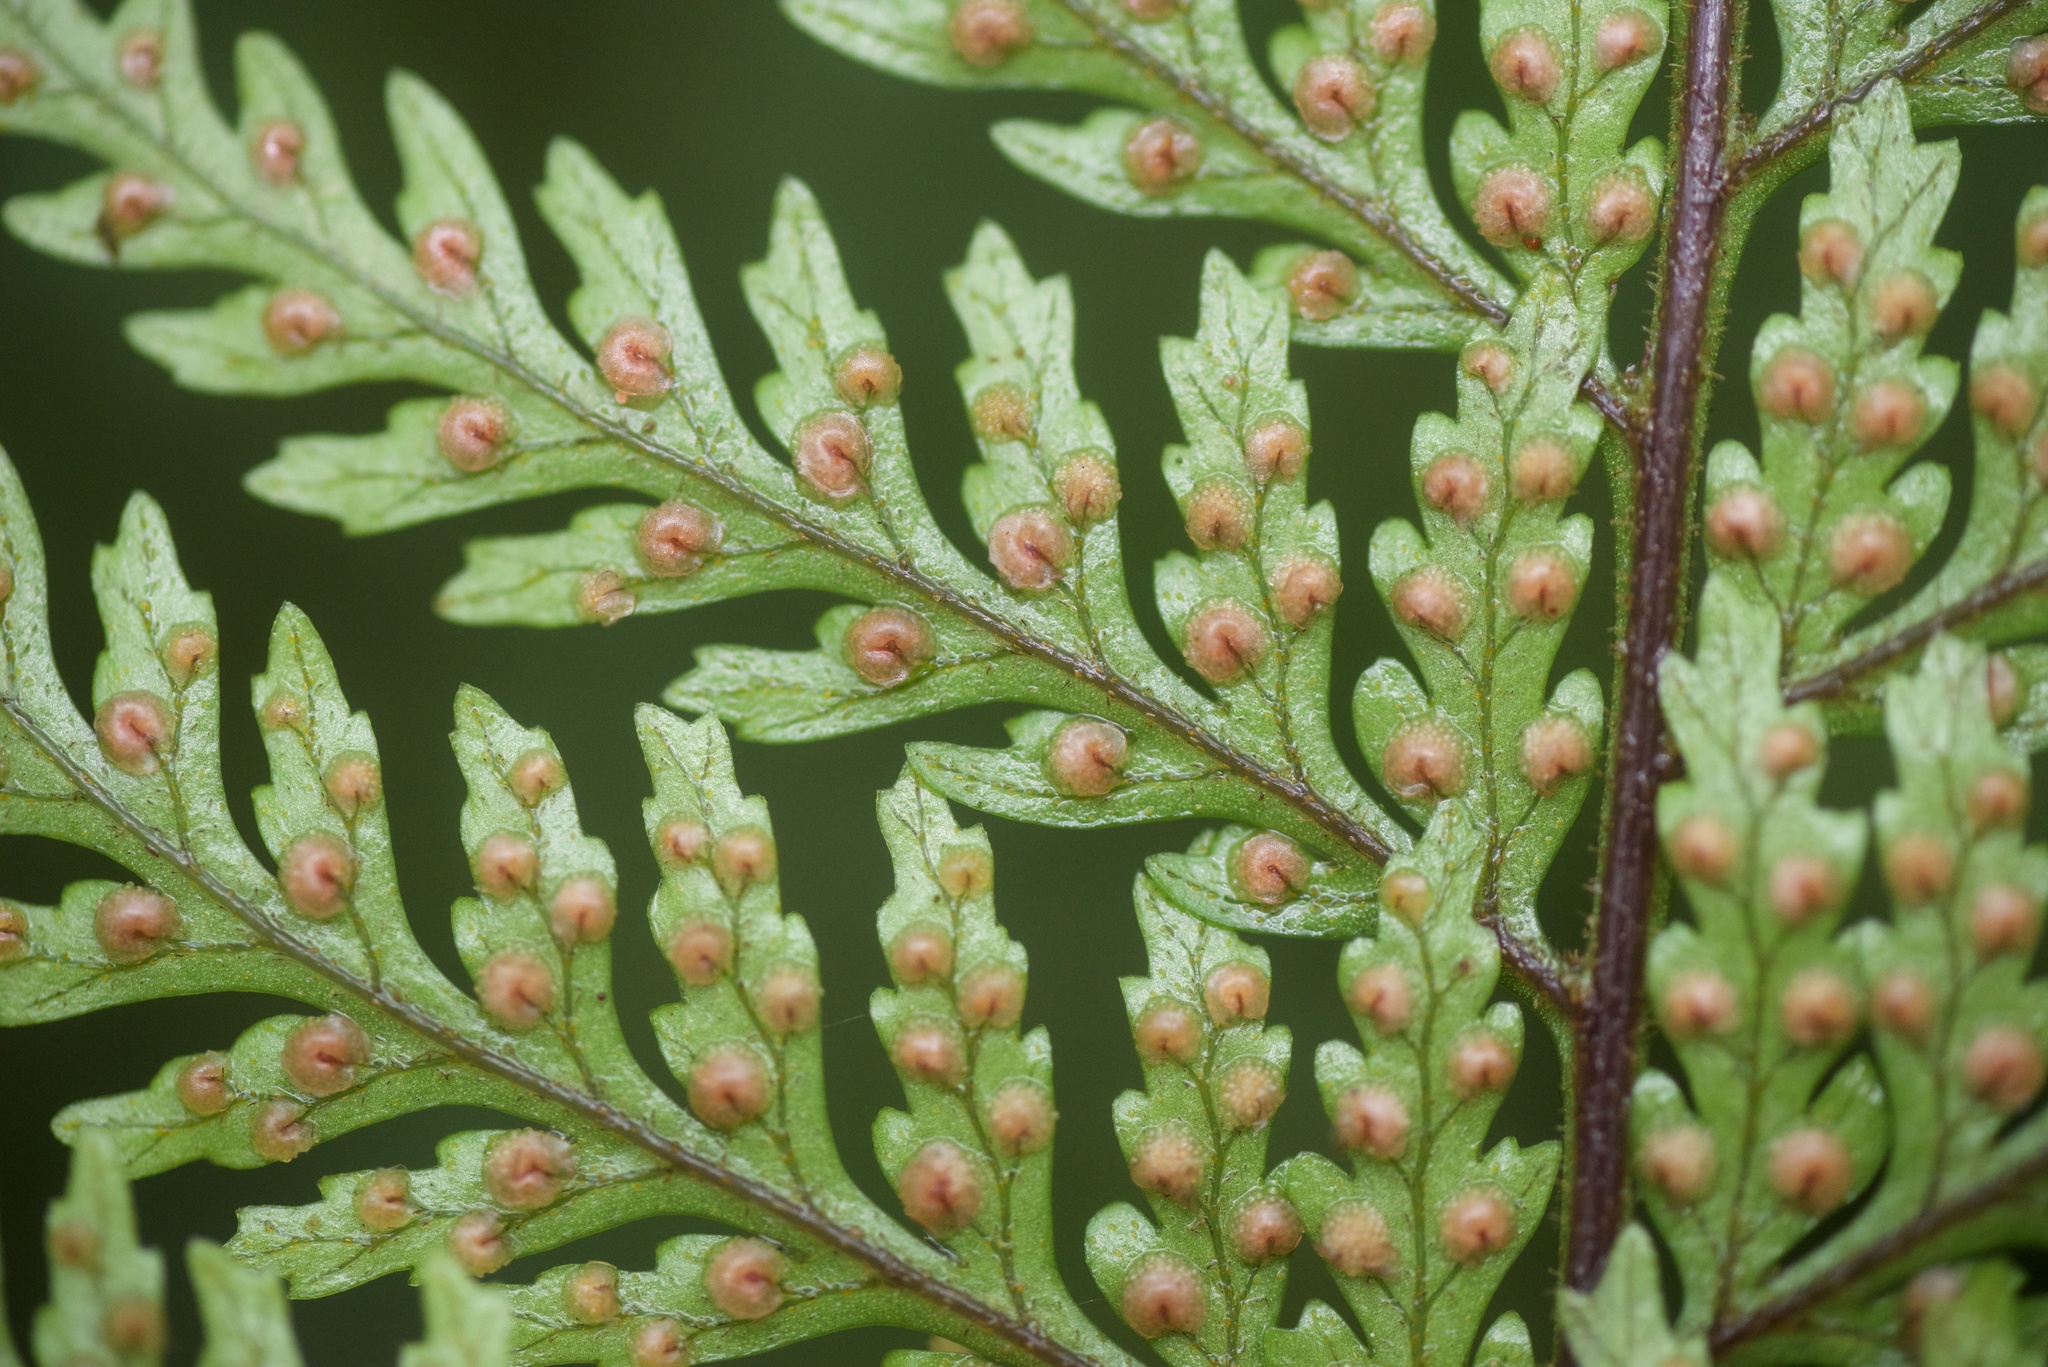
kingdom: Plantae
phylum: Tracheophyta
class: Polypodiopsida
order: Polypodiales
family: Dryopteridaceae
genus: Parapolystichum
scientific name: Parapolystichum glabellum
